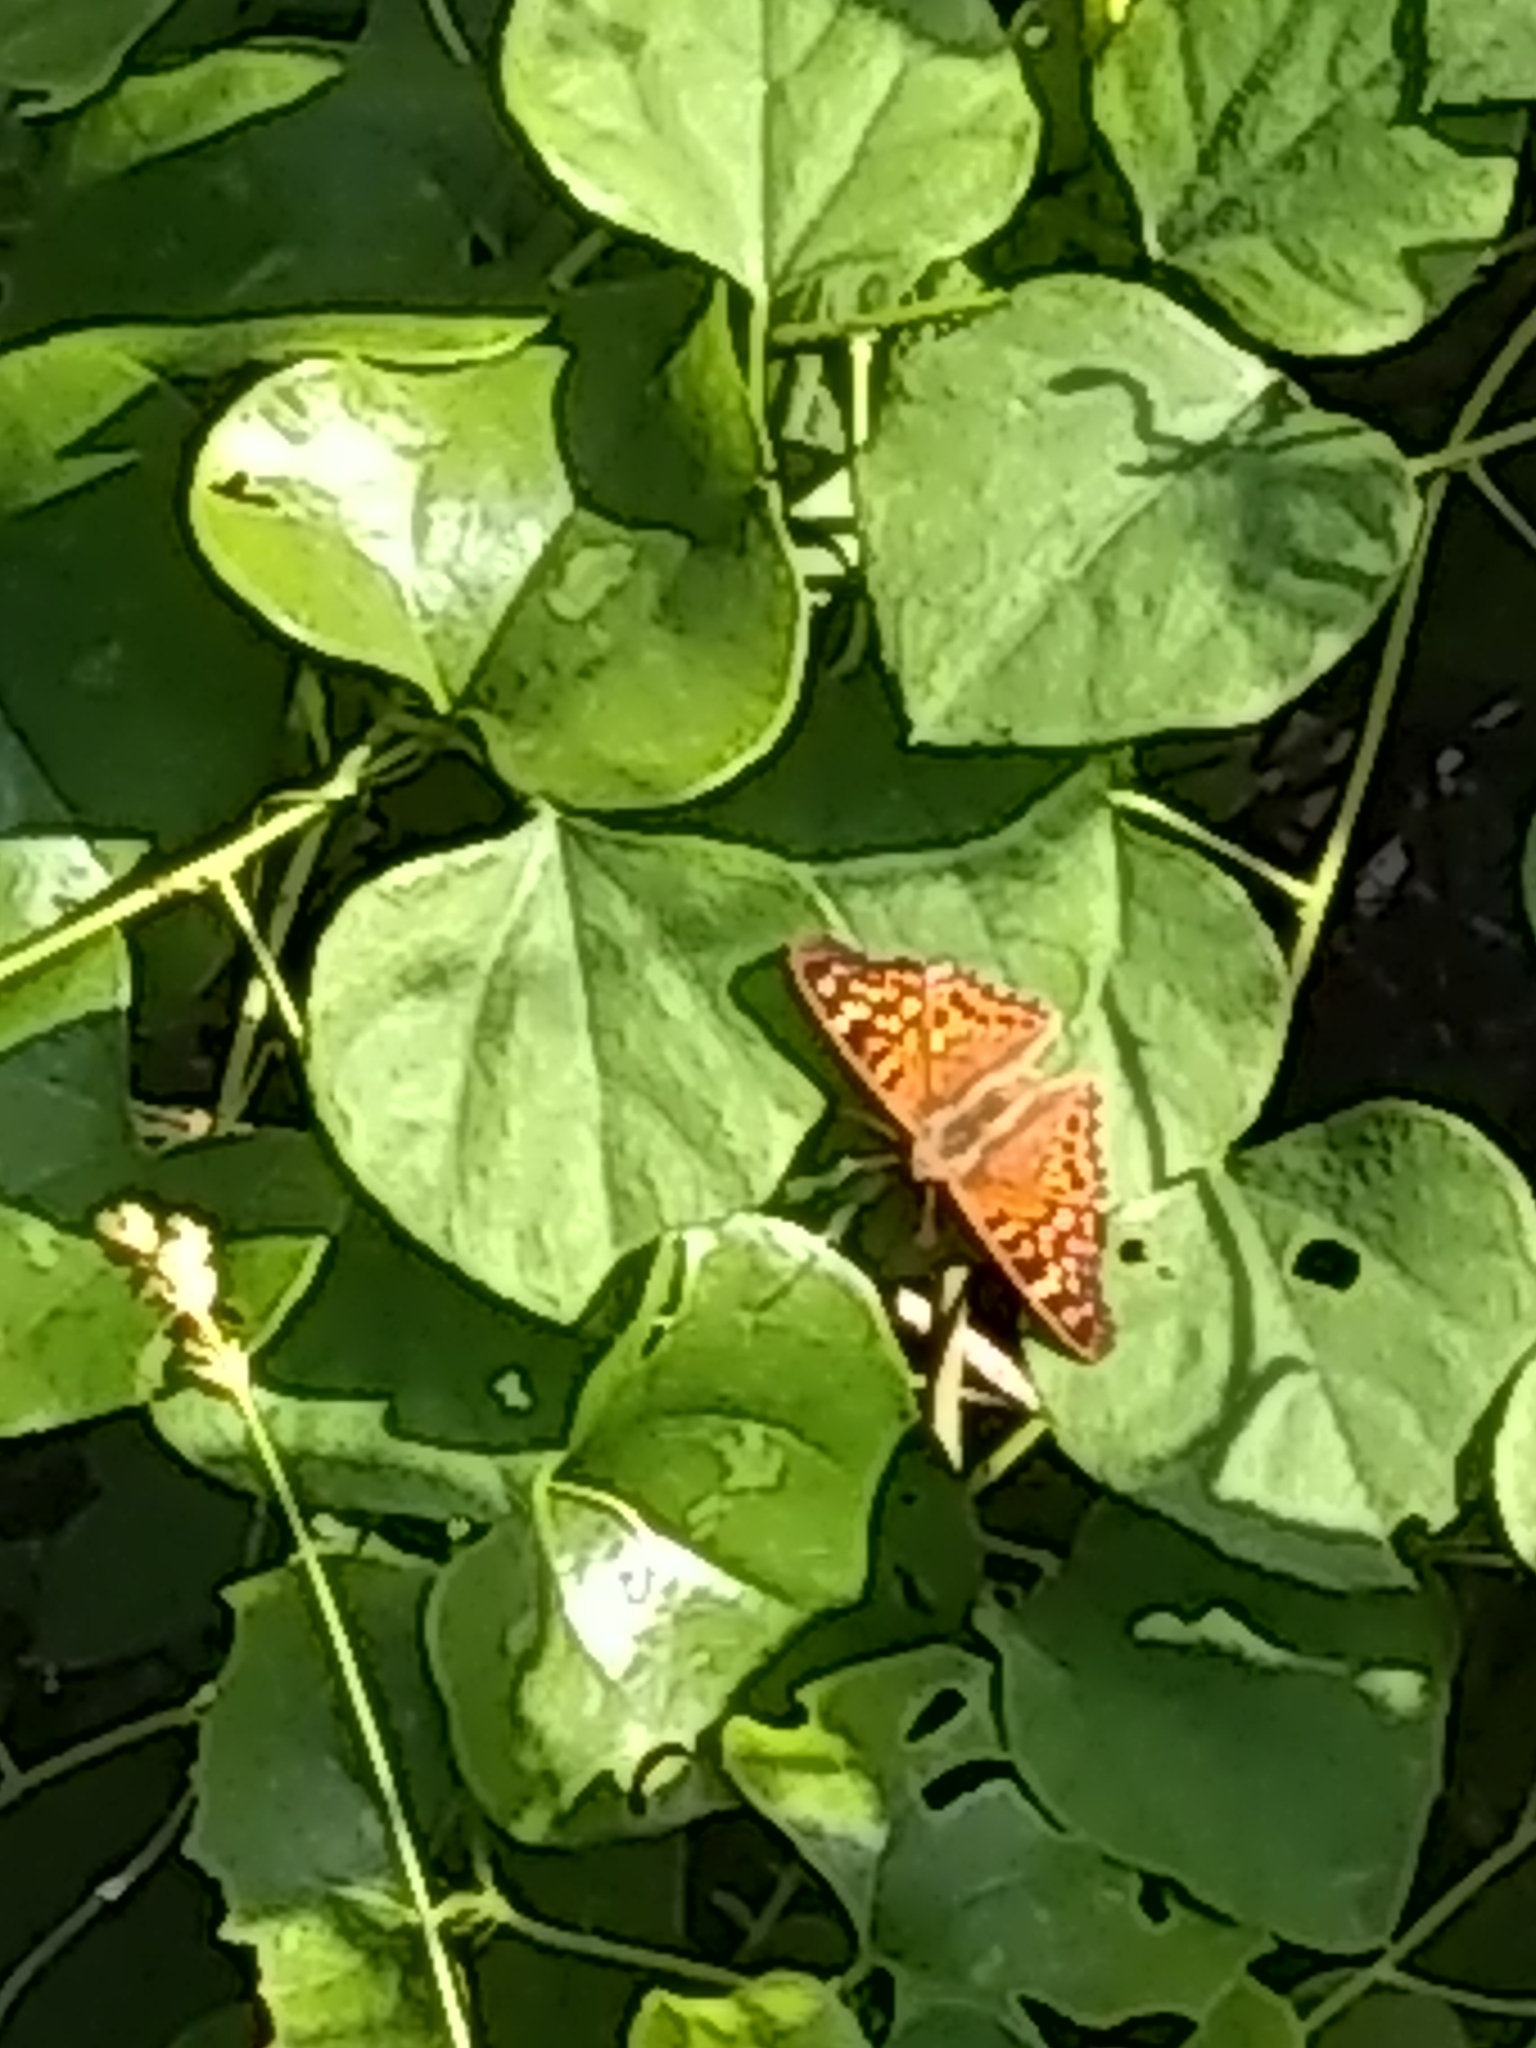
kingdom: Animalia
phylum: Arthropoda
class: Insecta
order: Lepidoptera
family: Nymphalidae
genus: Asterocampa
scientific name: Asterocampa clyton
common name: Tawny emperor
